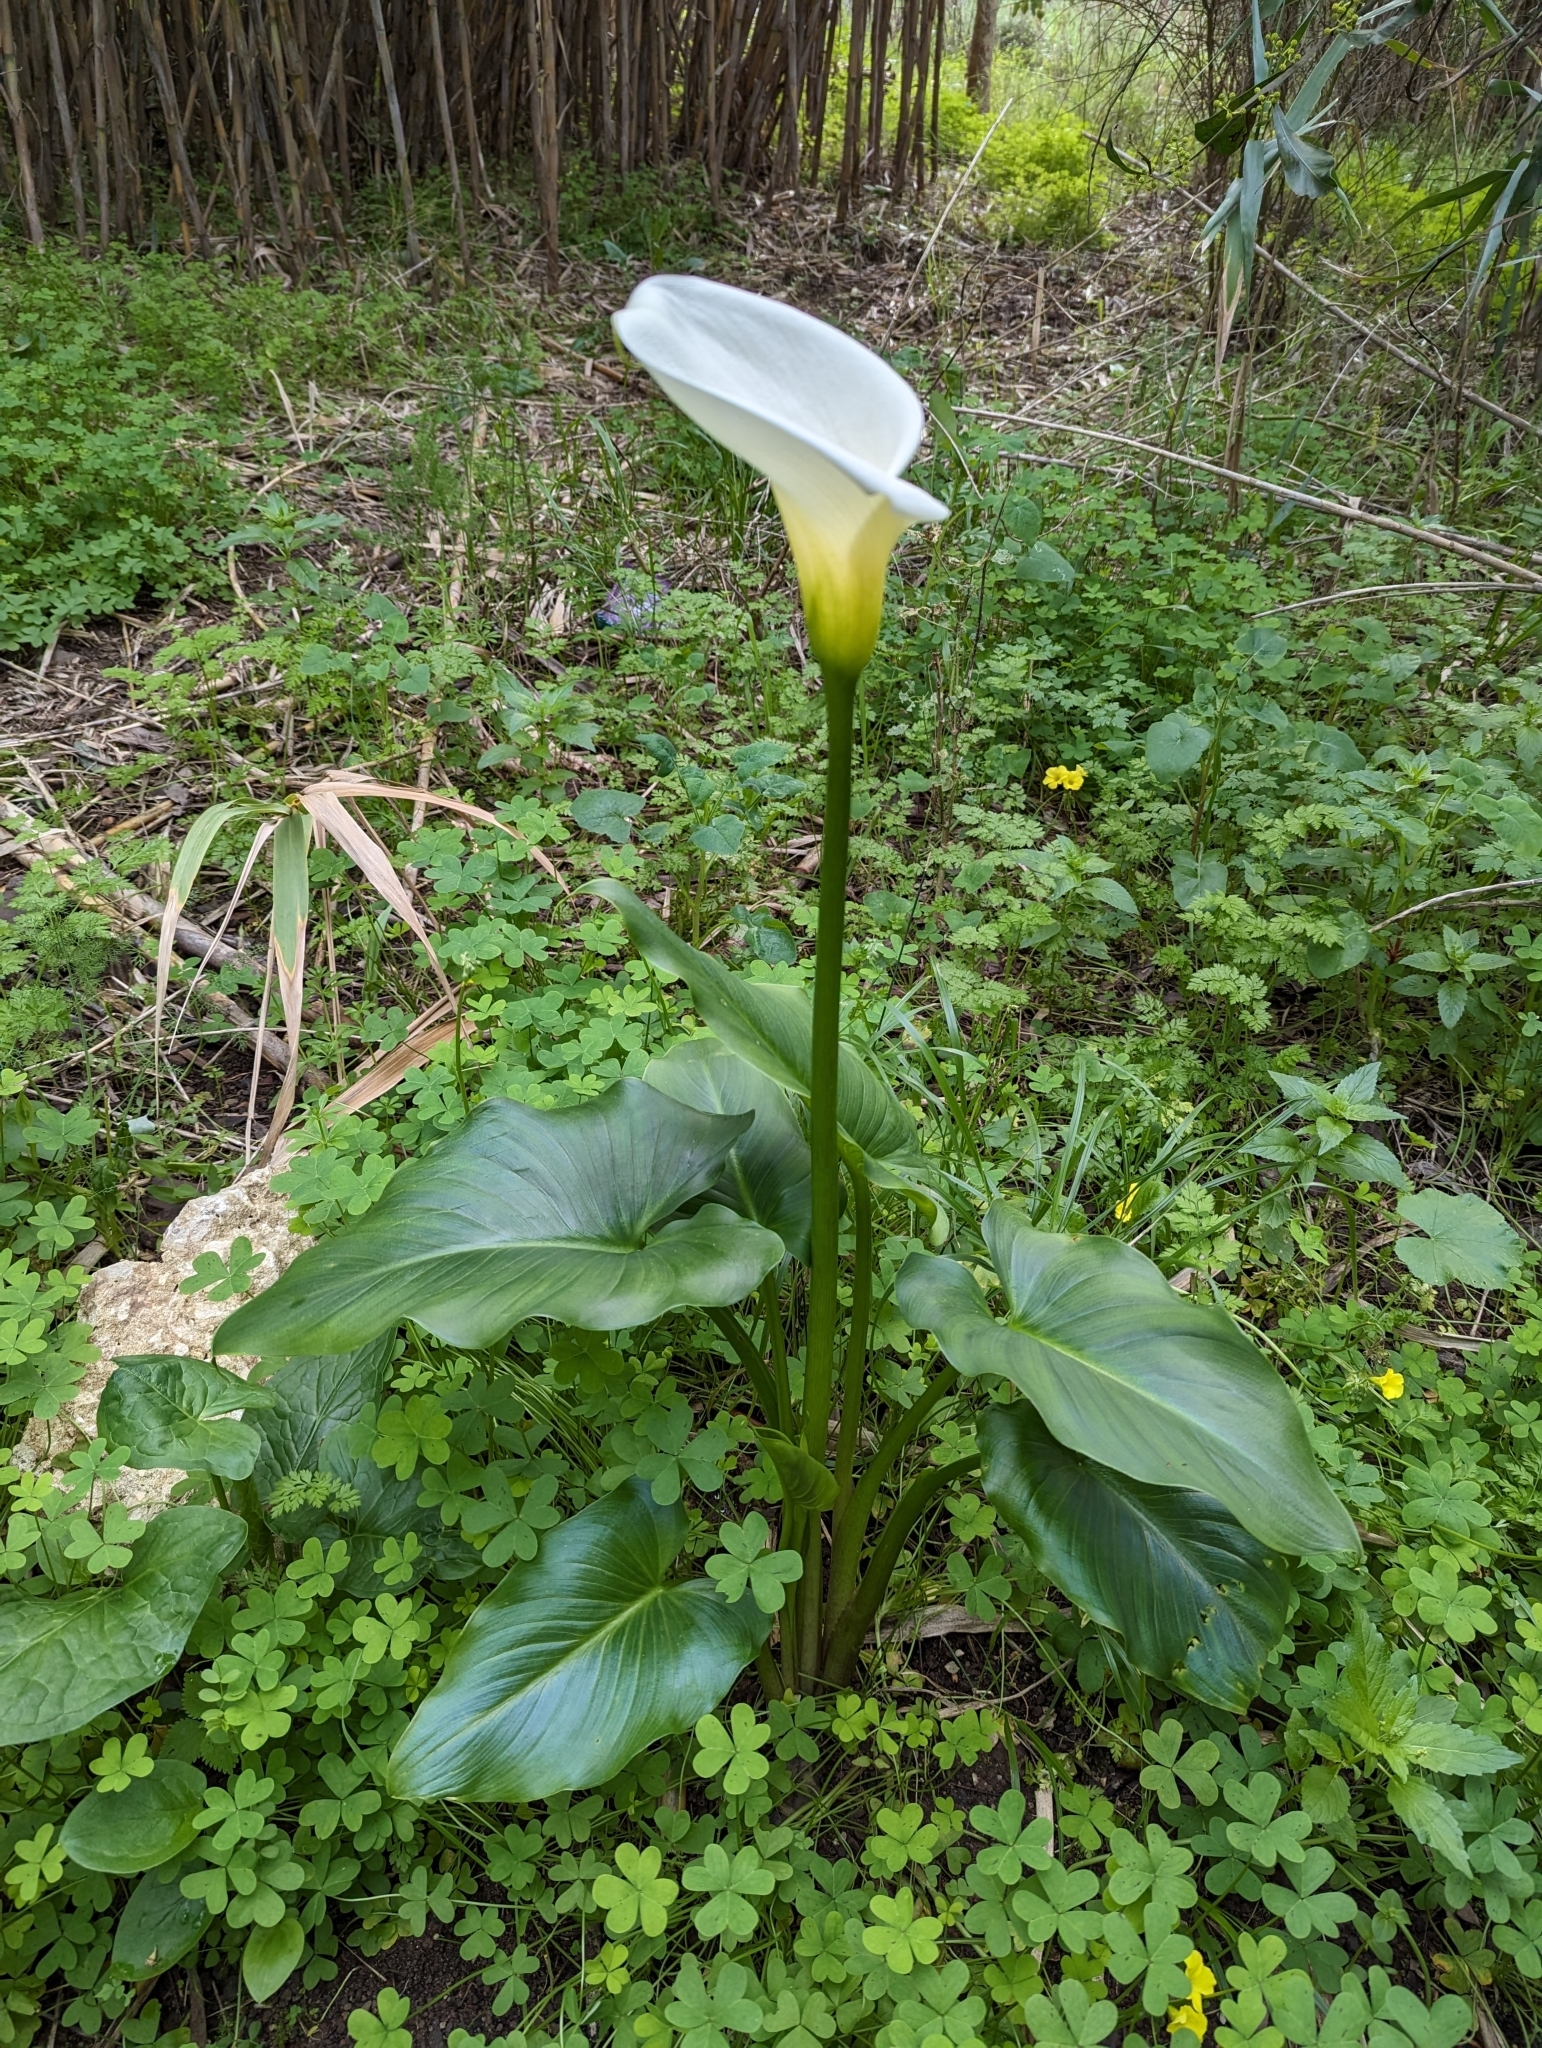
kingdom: Plantae
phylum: Tracheophyta
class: Liliopsida
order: Alismatales
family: Araceae
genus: Zantedeschia
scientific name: Zantedeschia aethiopica
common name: Altar-lily
